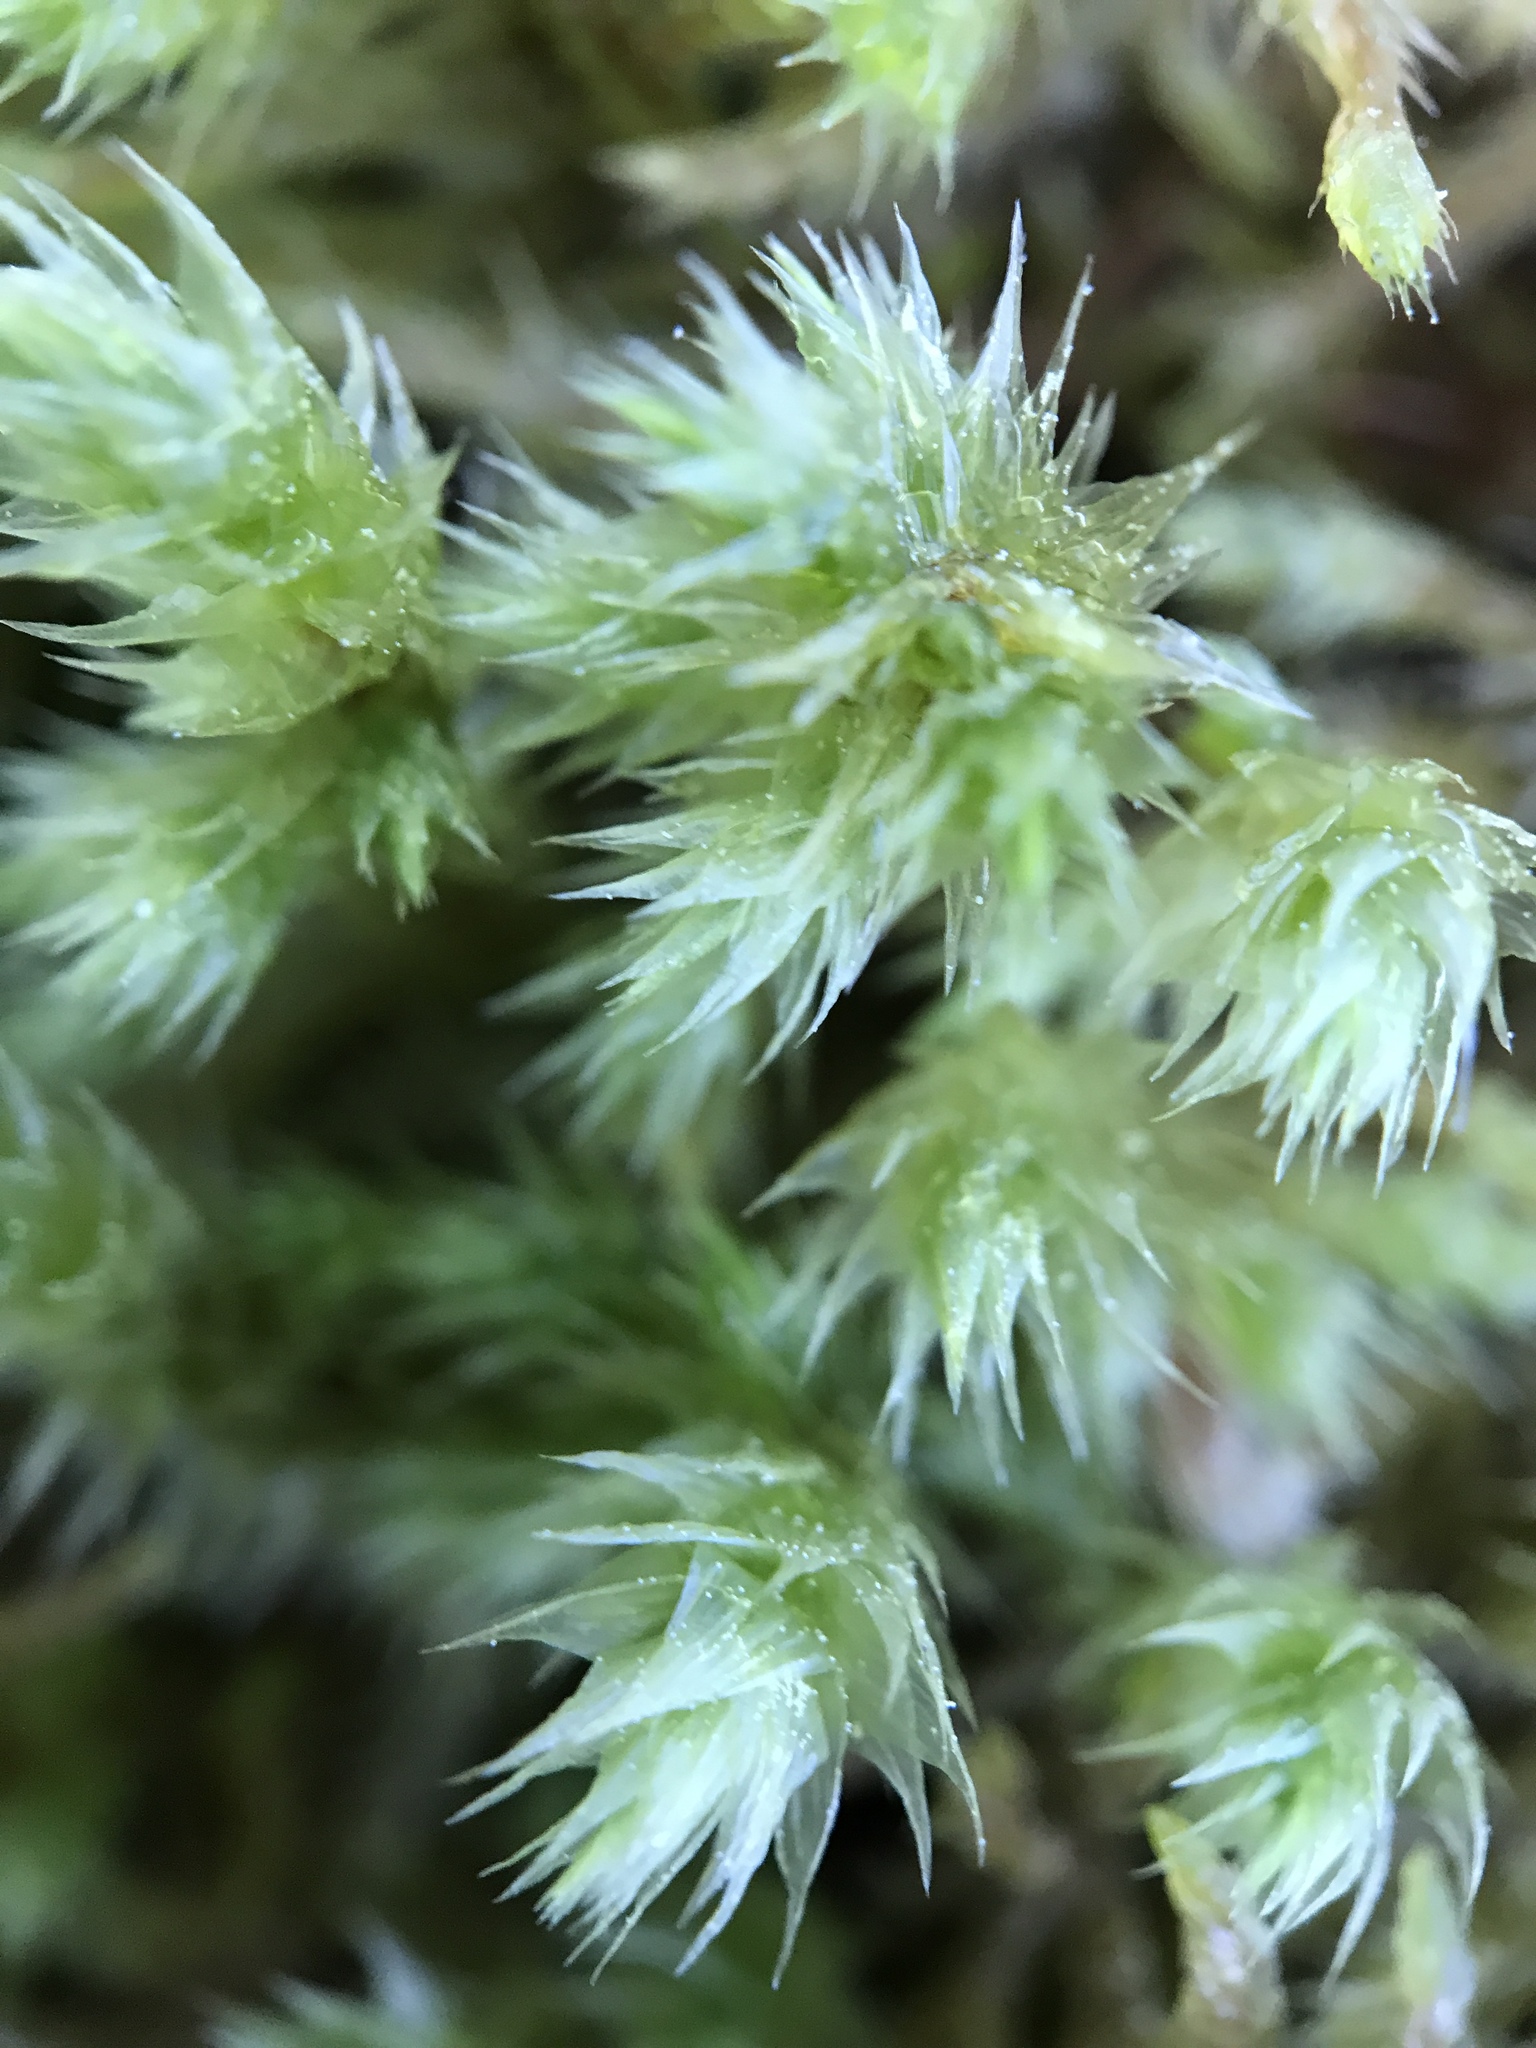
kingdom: Plantae
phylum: Bryophyta
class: Bryopsida
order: Hypnales
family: Hylocomiaceae
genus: Hylocomiadelphus
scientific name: Hylocomiadelphus triquetrus
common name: Rough goose neck moss
